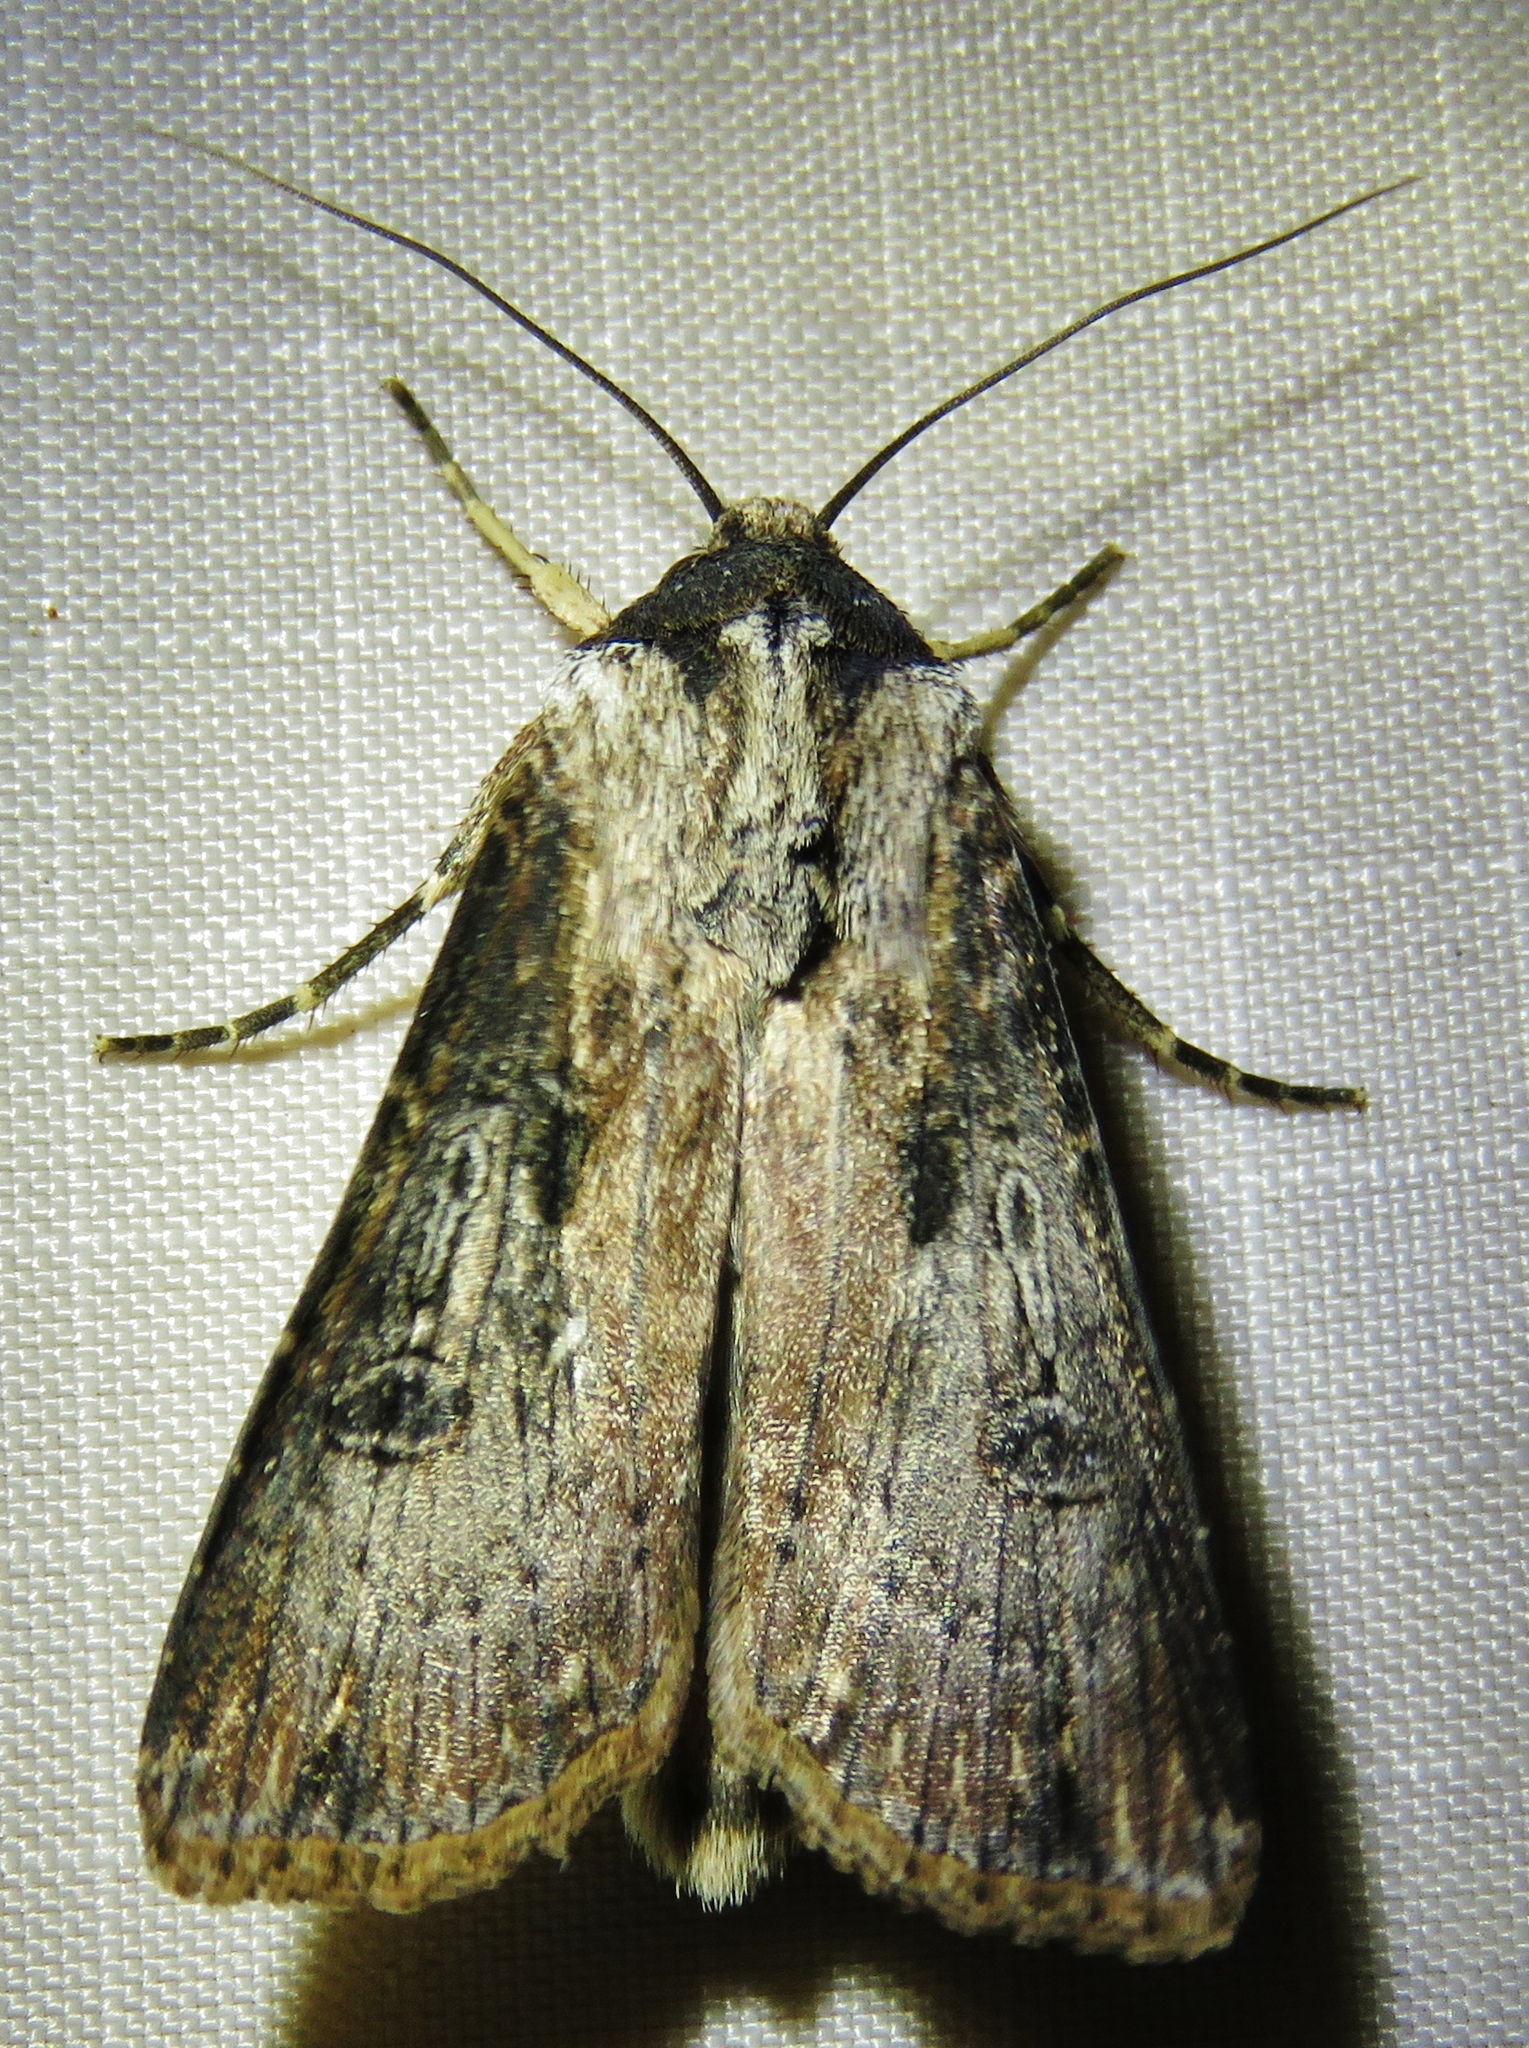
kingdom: Animalia
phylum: Arthropoda
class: Insecta
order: Lepidoptera
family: Noctuidae
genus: Agrotis
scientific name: Agrotis ipsilon
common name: Dark sword-grass
